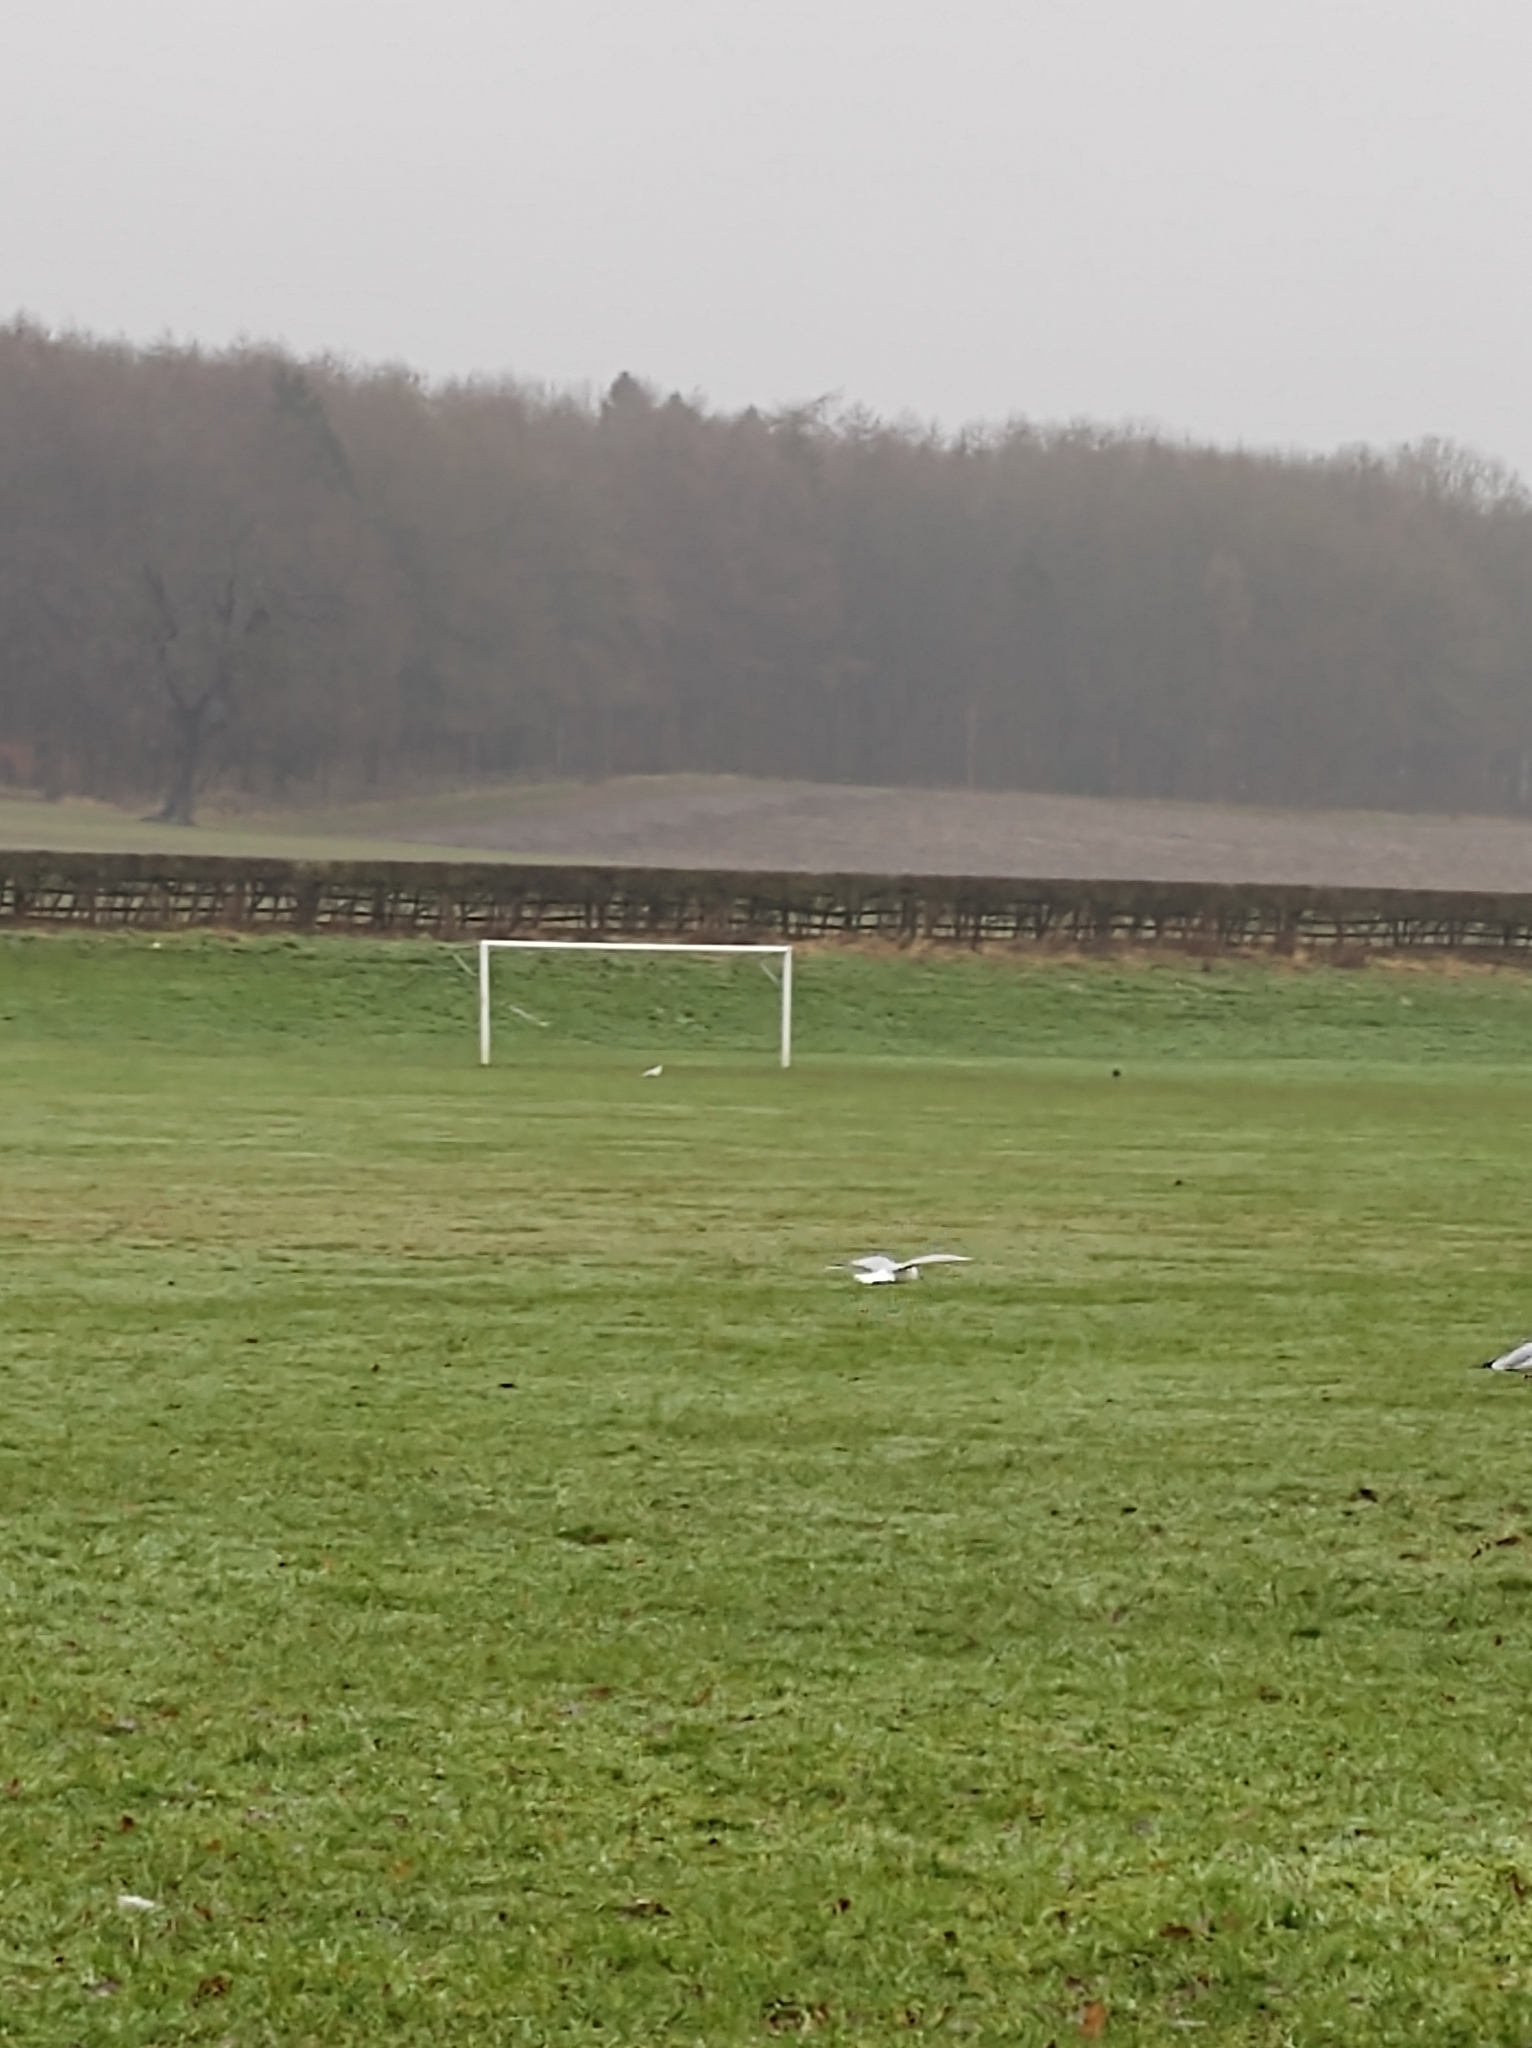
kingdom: Animalia
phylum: Chordata
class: Aves
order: Charadriiformes
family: Laridae
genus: Chroicocephalus
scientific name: Chroicocephalus ridibundus
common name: Black-headed gull
